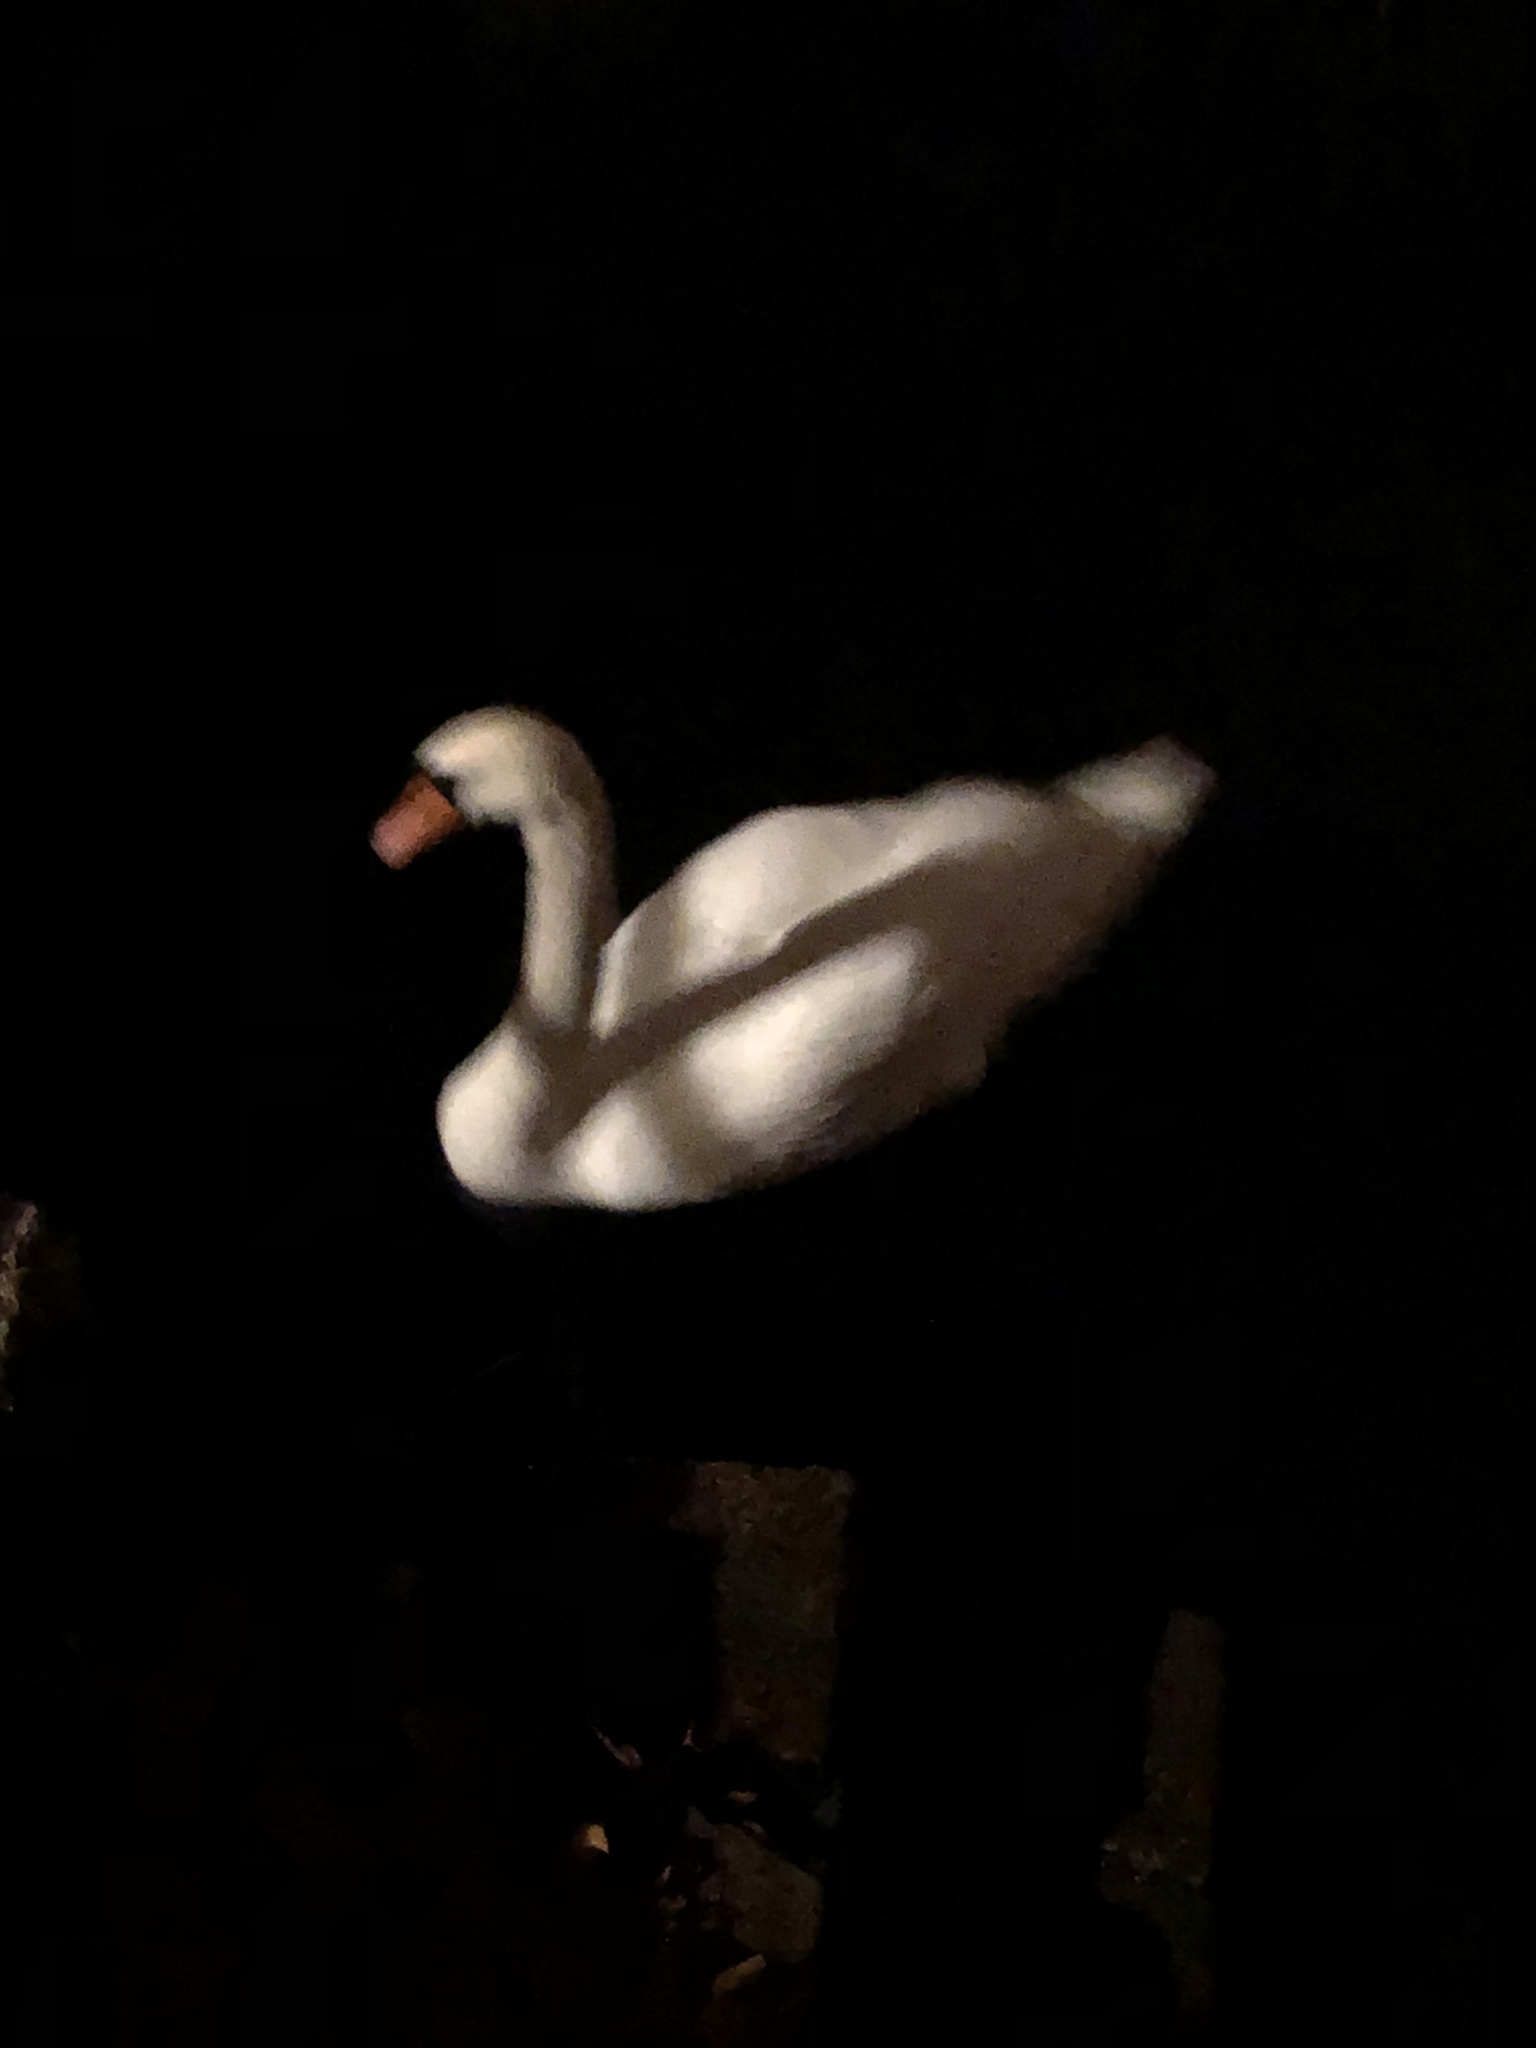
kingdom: Animalia
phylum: Chordata
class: Aves
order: Anseriformes
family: Anatidae
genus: Cygnus
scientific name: Cygnus olor
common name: Mute swan
